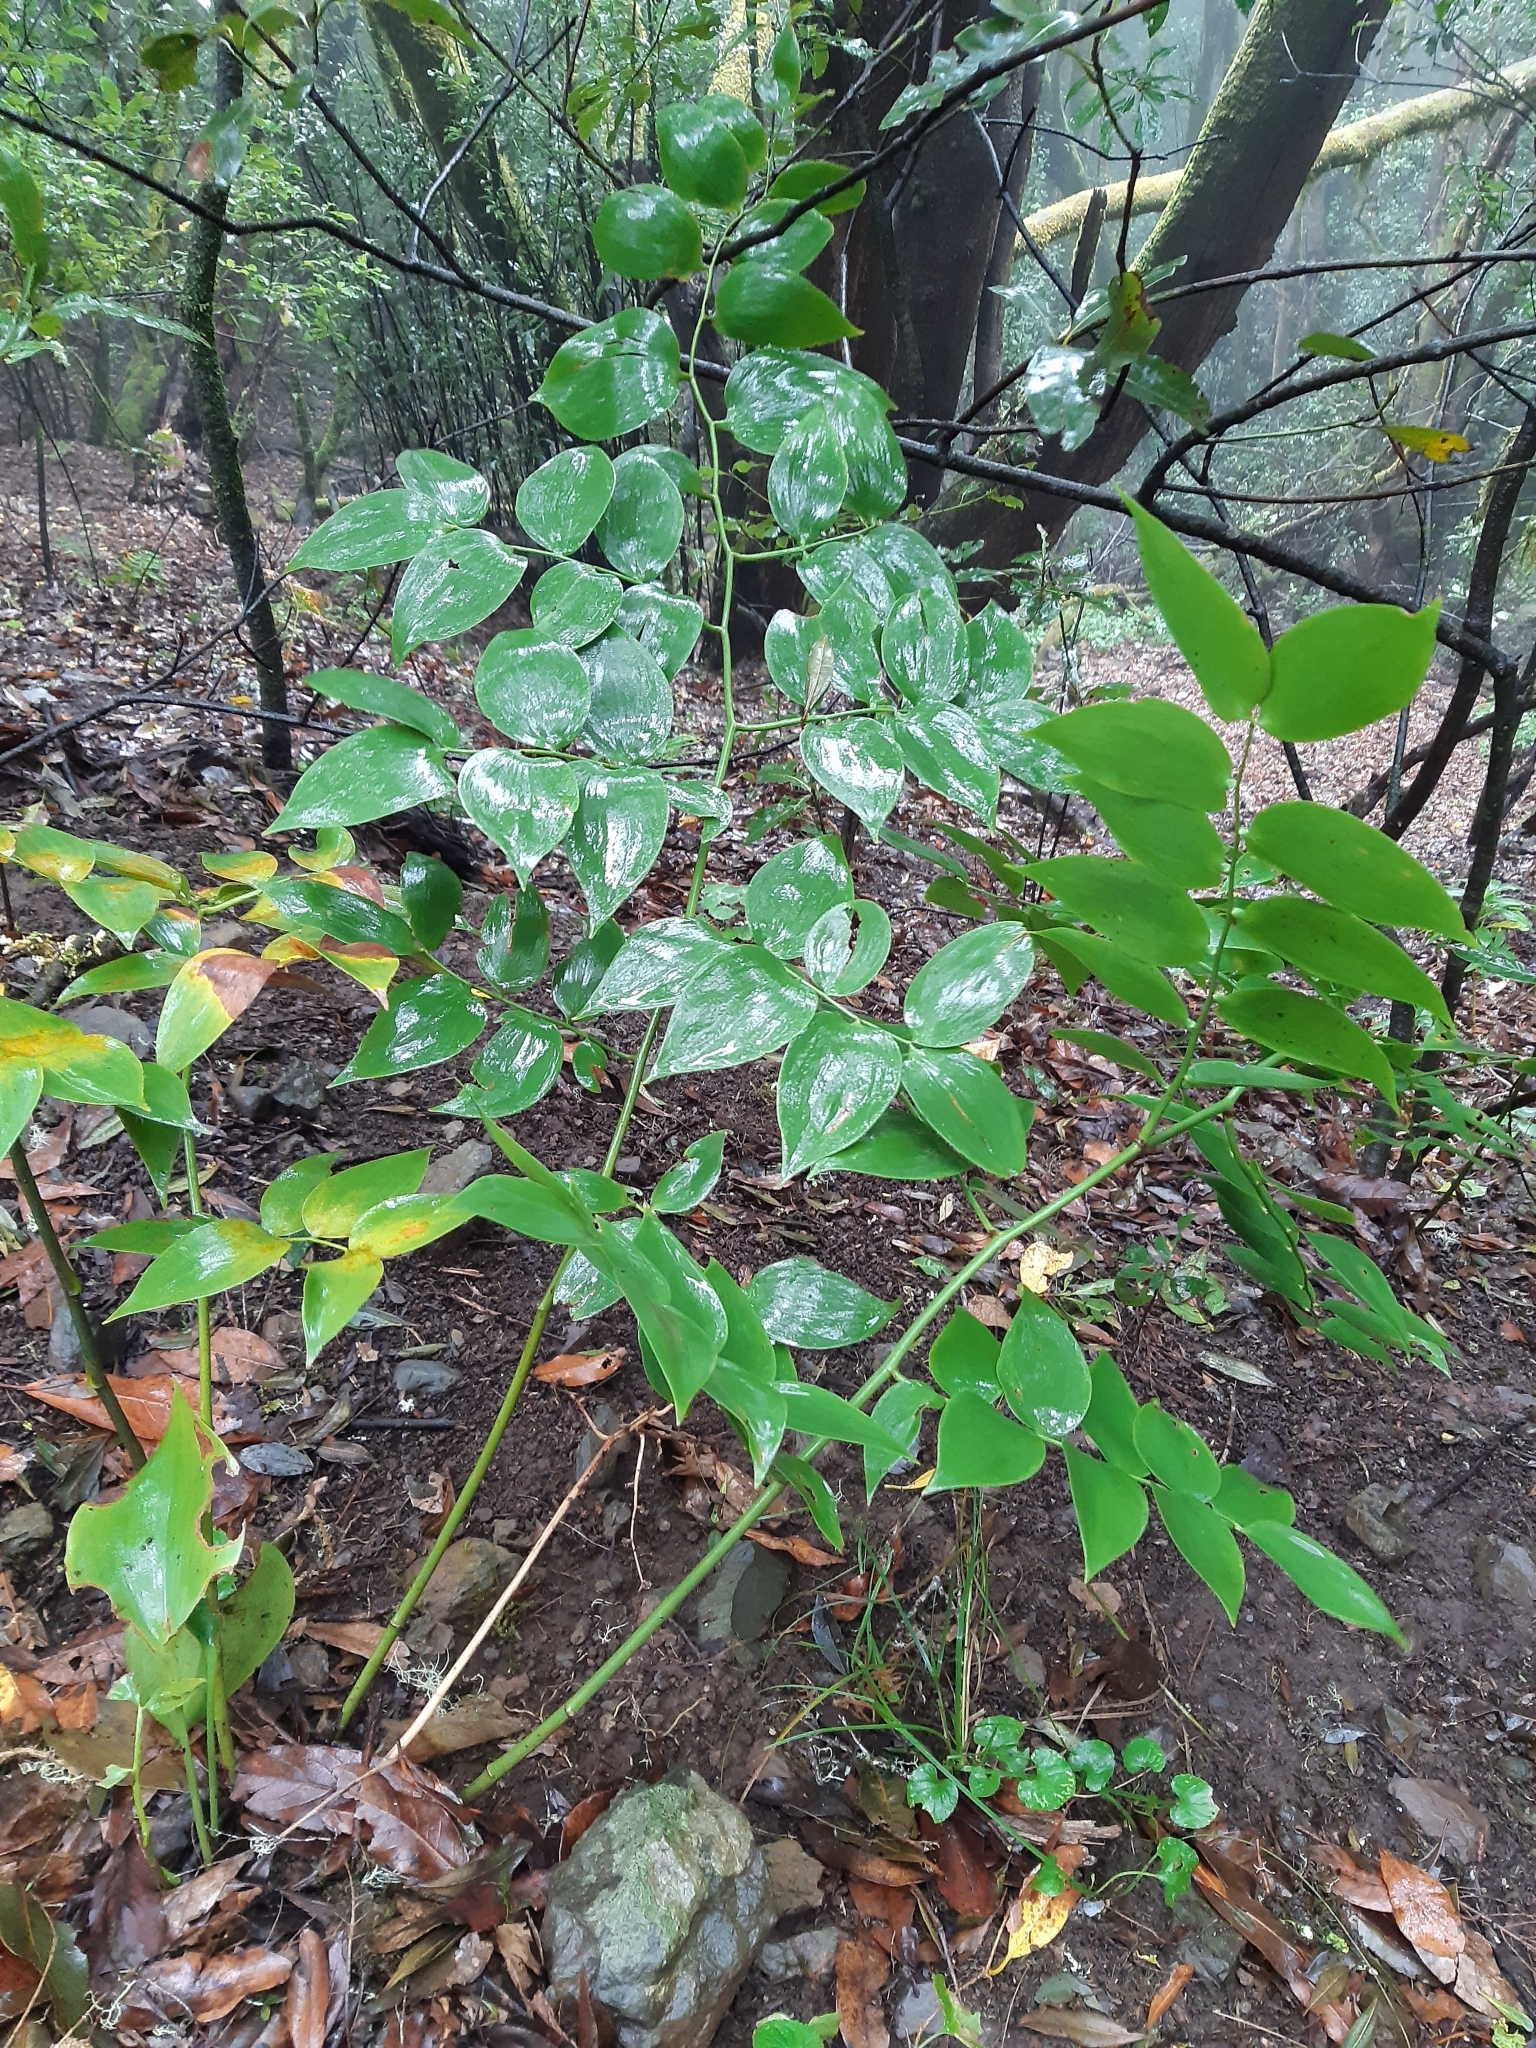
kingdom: Plantae
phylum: Tracheophyta
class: Liliopsida
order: Asparagales
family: Asparagaceae
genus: Semele
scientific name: Semele androgyna
